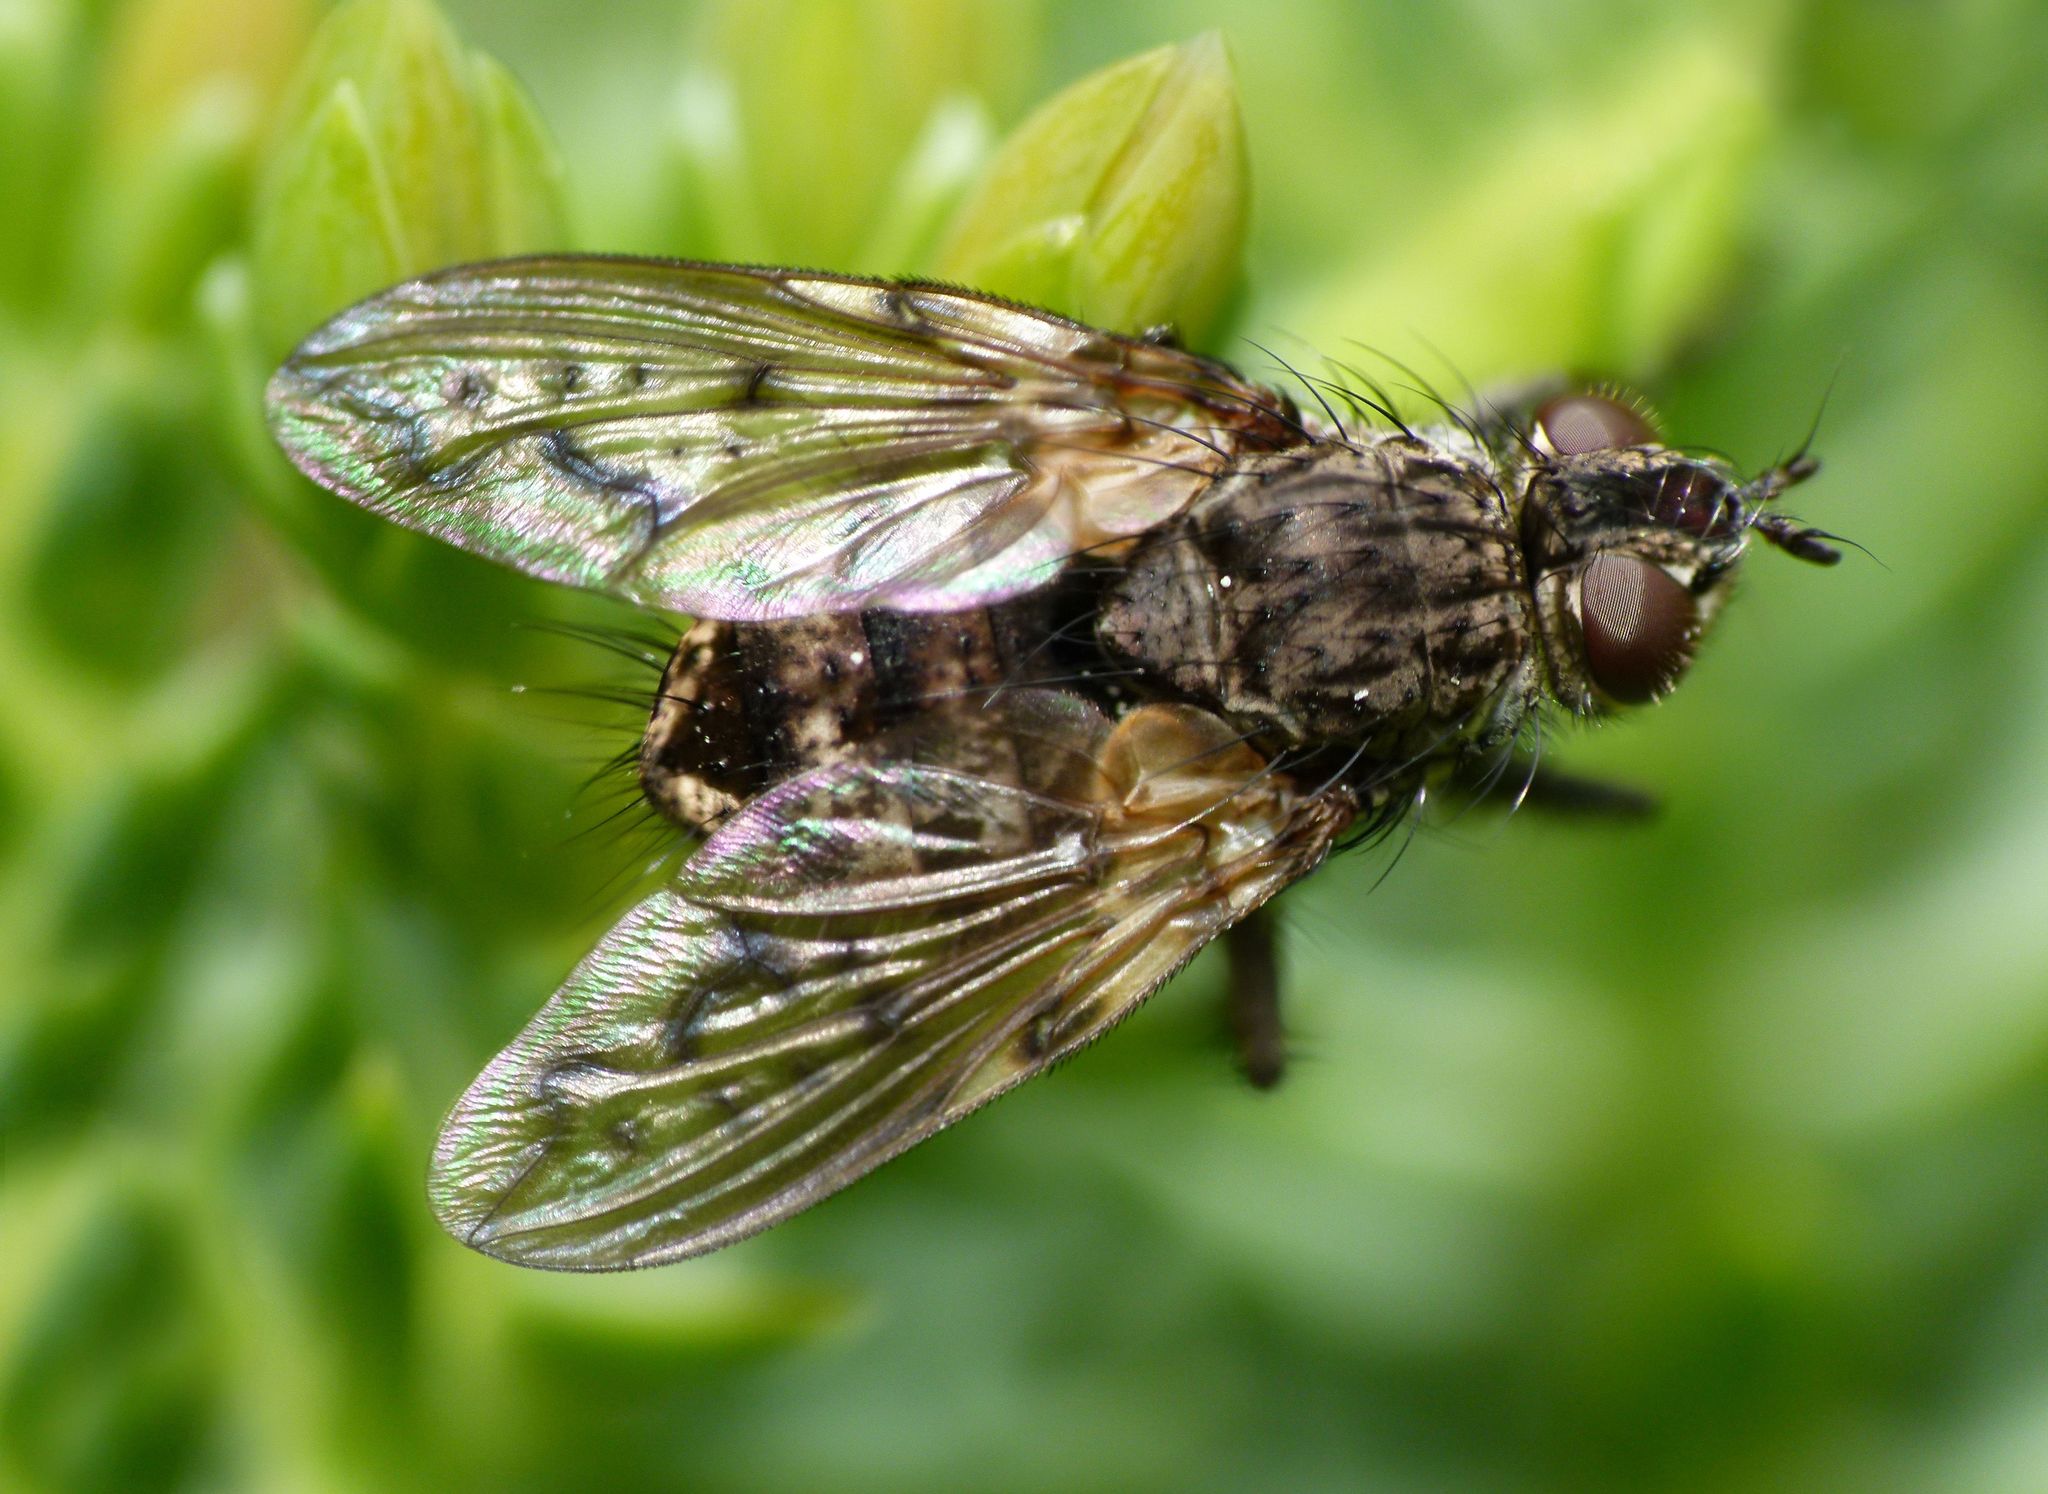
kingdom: Animalia
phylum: Arthropoda
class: Insecta
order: Diptera
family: Tachinidae
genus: Mallochomacquartia
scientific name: Mallochomacquartia vexata
